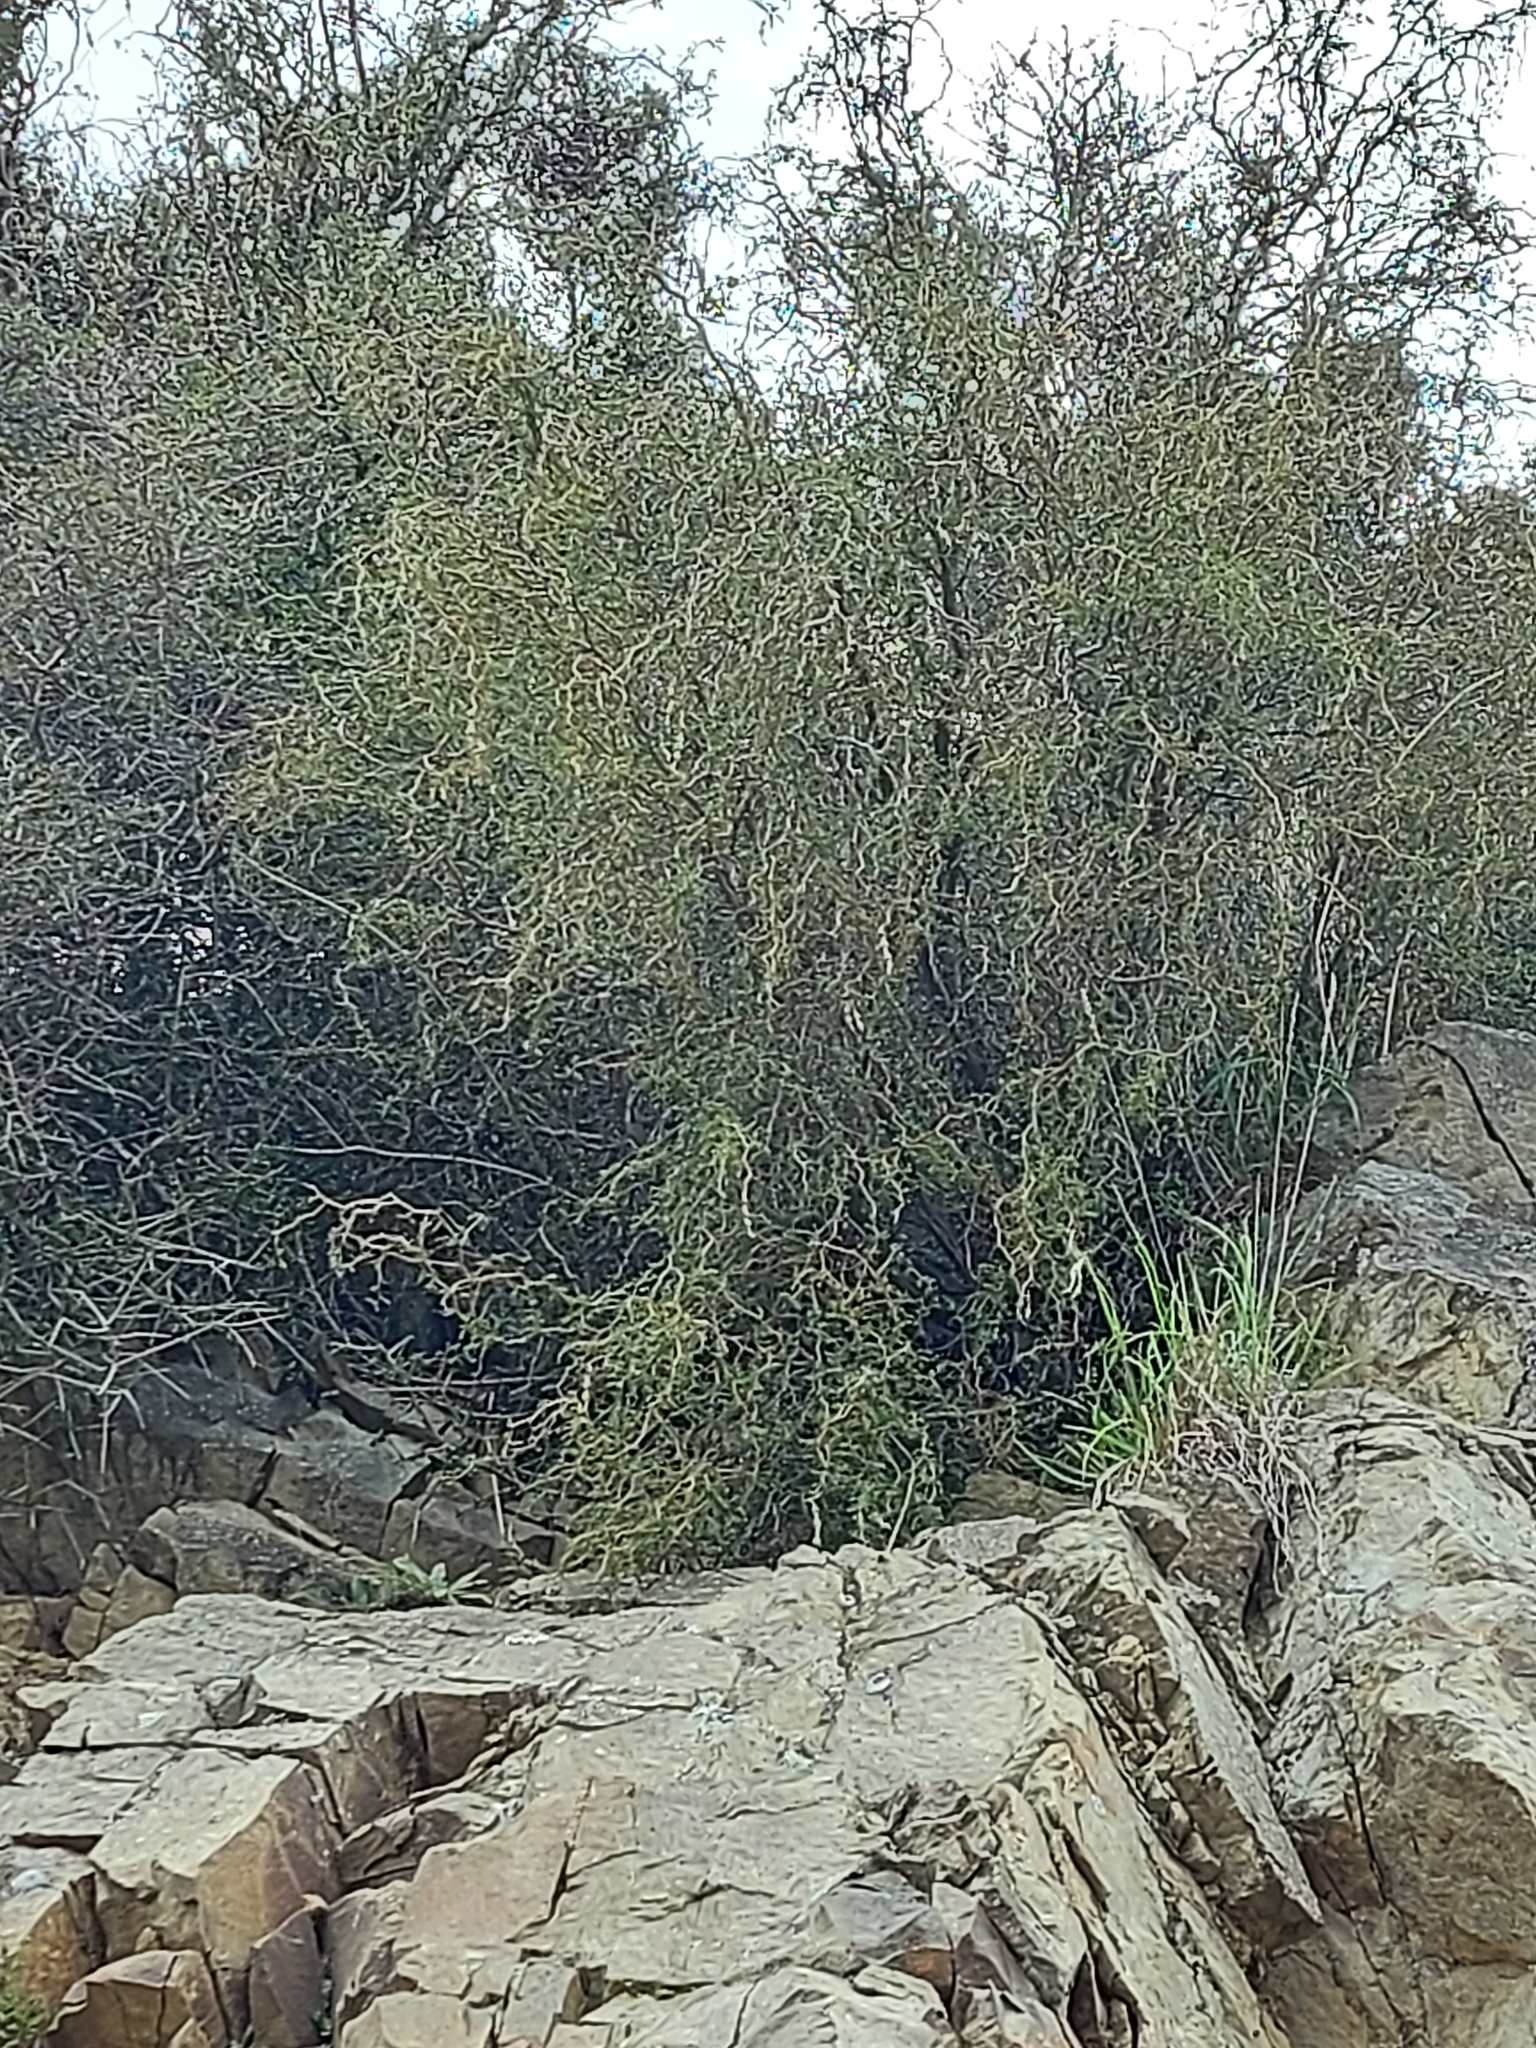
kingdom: Plantae
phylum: Tracheophyta
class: Magnoliopsida
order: Fabales
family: Fabaceae
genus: Sophora
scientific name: Sophora prostrata
